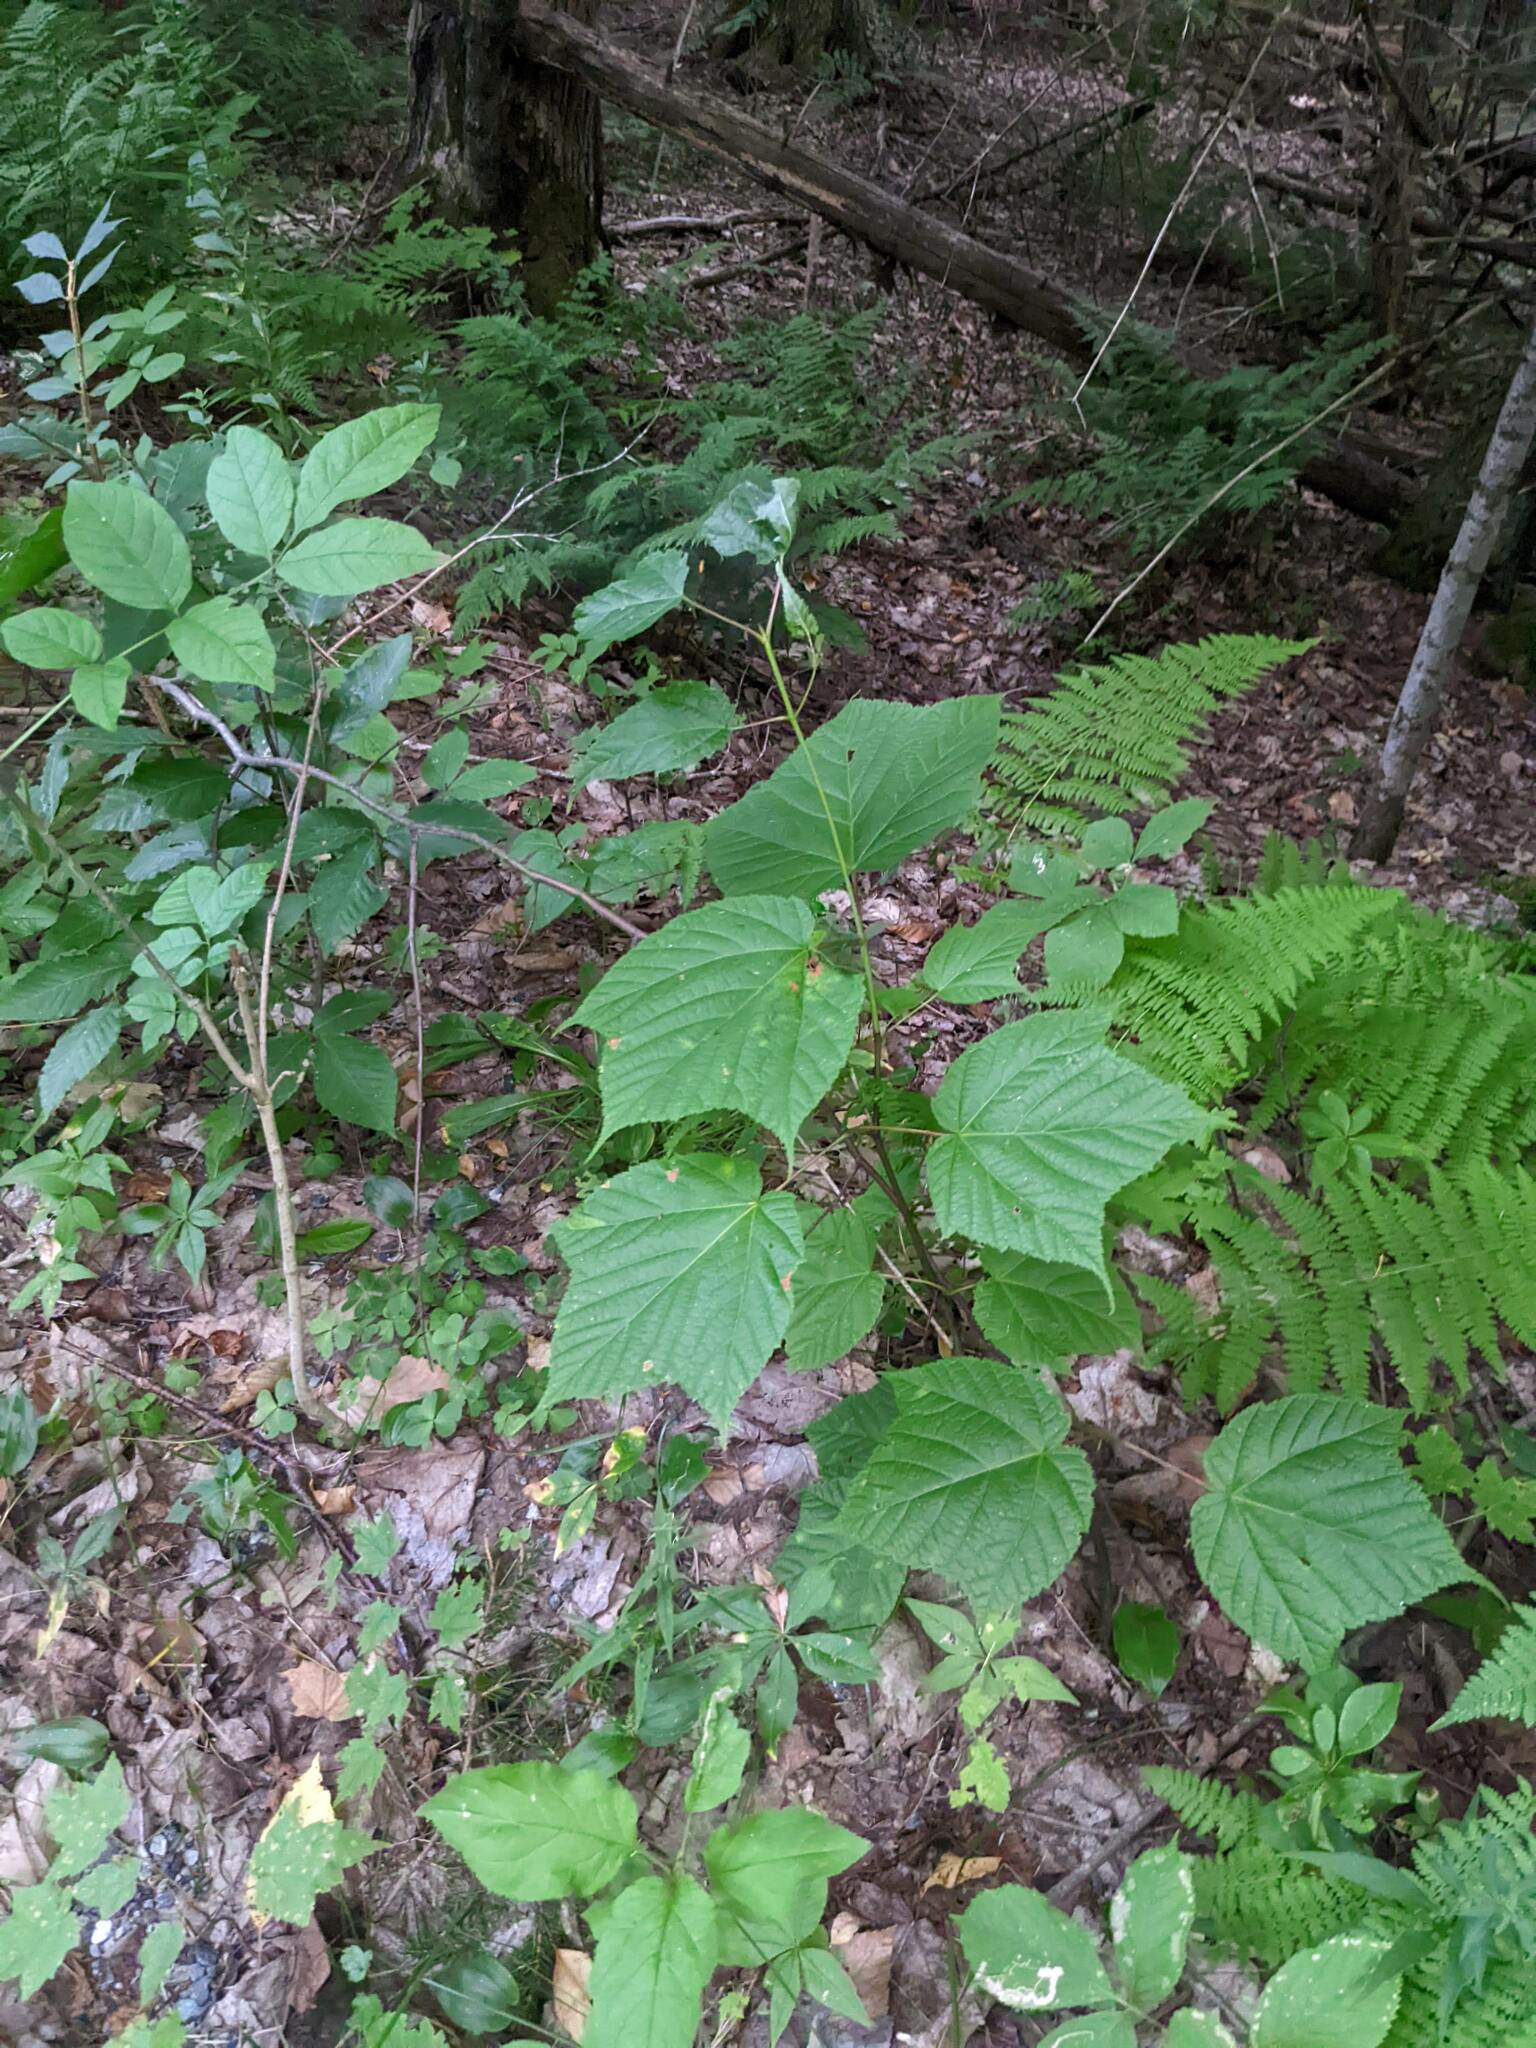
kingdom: Plantae
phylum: Tracheophyta
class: Magnoliopsida
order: Sapindales
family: Sapindaceae
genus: Acer
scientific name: Acer pensylvanicum
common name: Moosewood
